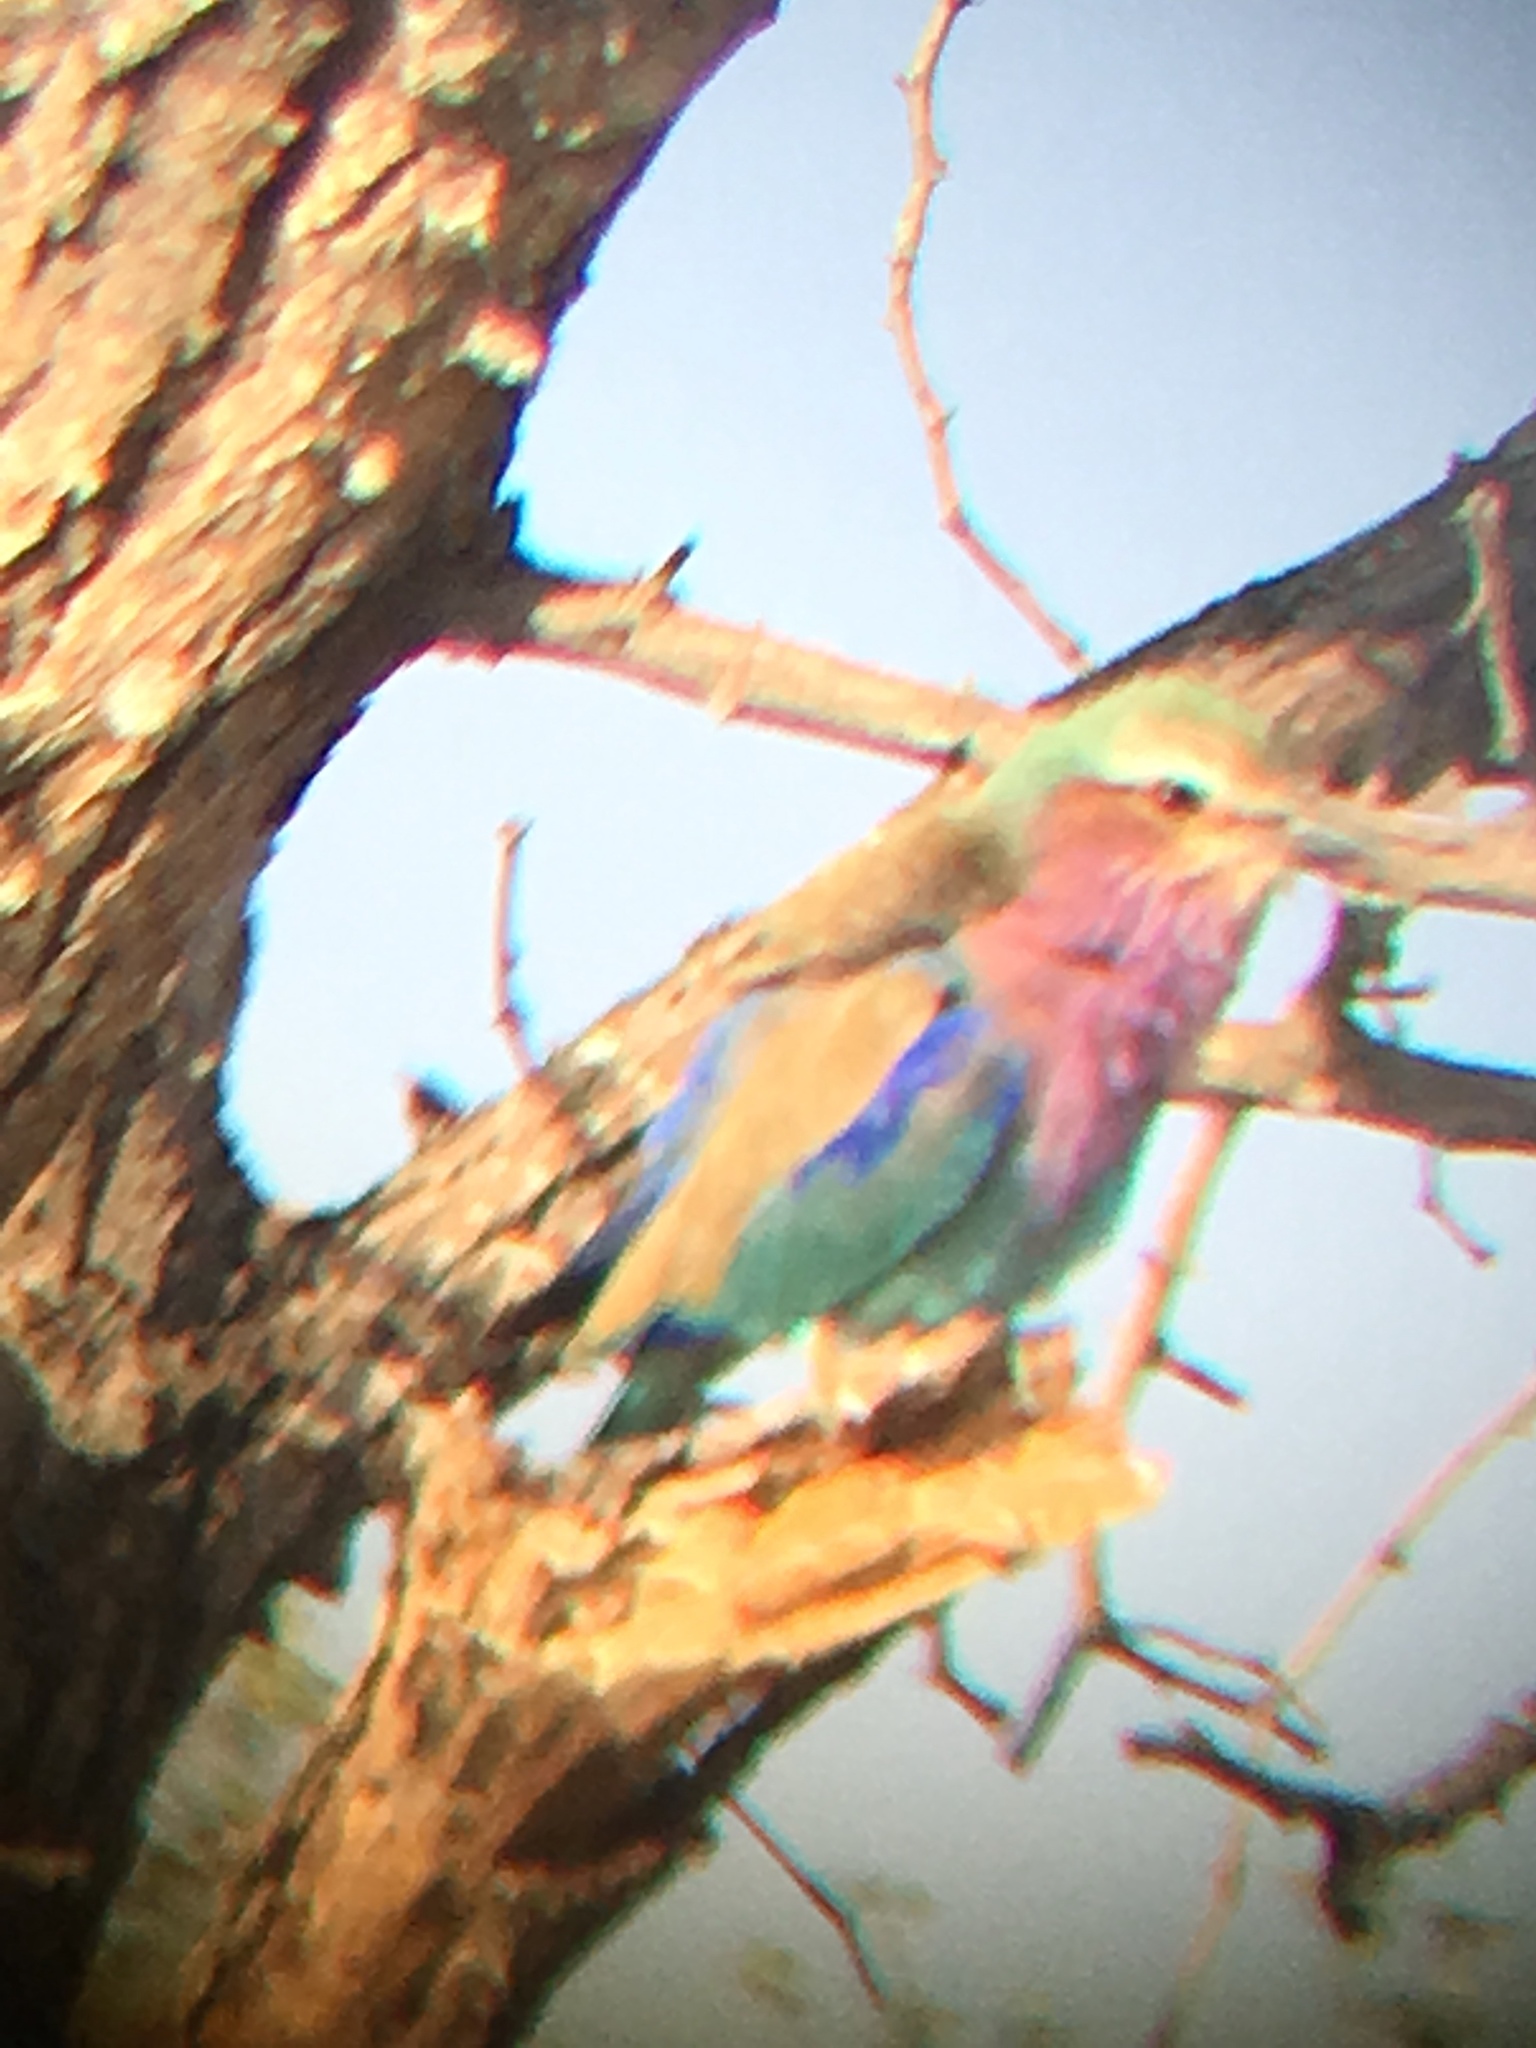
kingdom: Animalia
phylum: Chordata
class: Aves
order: Coraciiformes
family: Coraciidae
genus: Coracias
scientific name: Coracias caudatus
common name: Lilac-breasted roller
